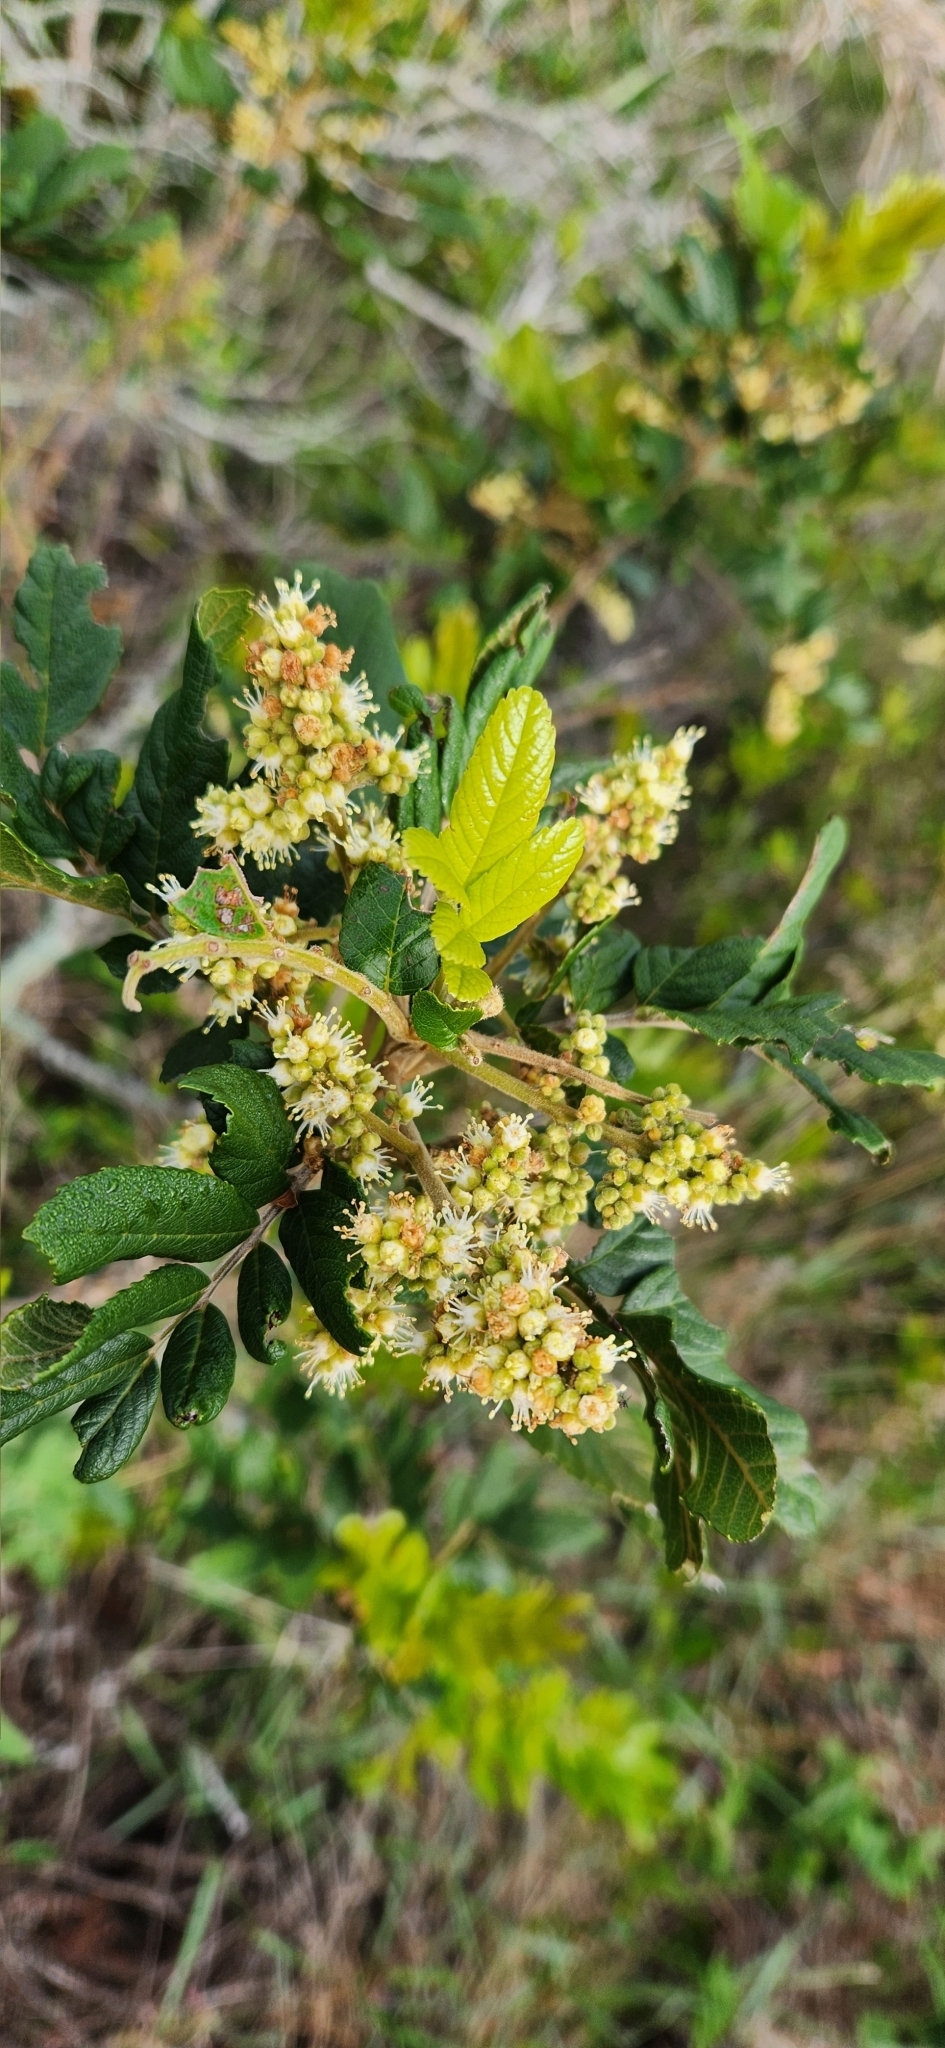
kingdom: Plantae
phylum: Tracheophyta
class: Magnoliopsida
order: Sapindales
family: Sapindaceae
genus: Cupania
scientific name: Cupania vernalis
